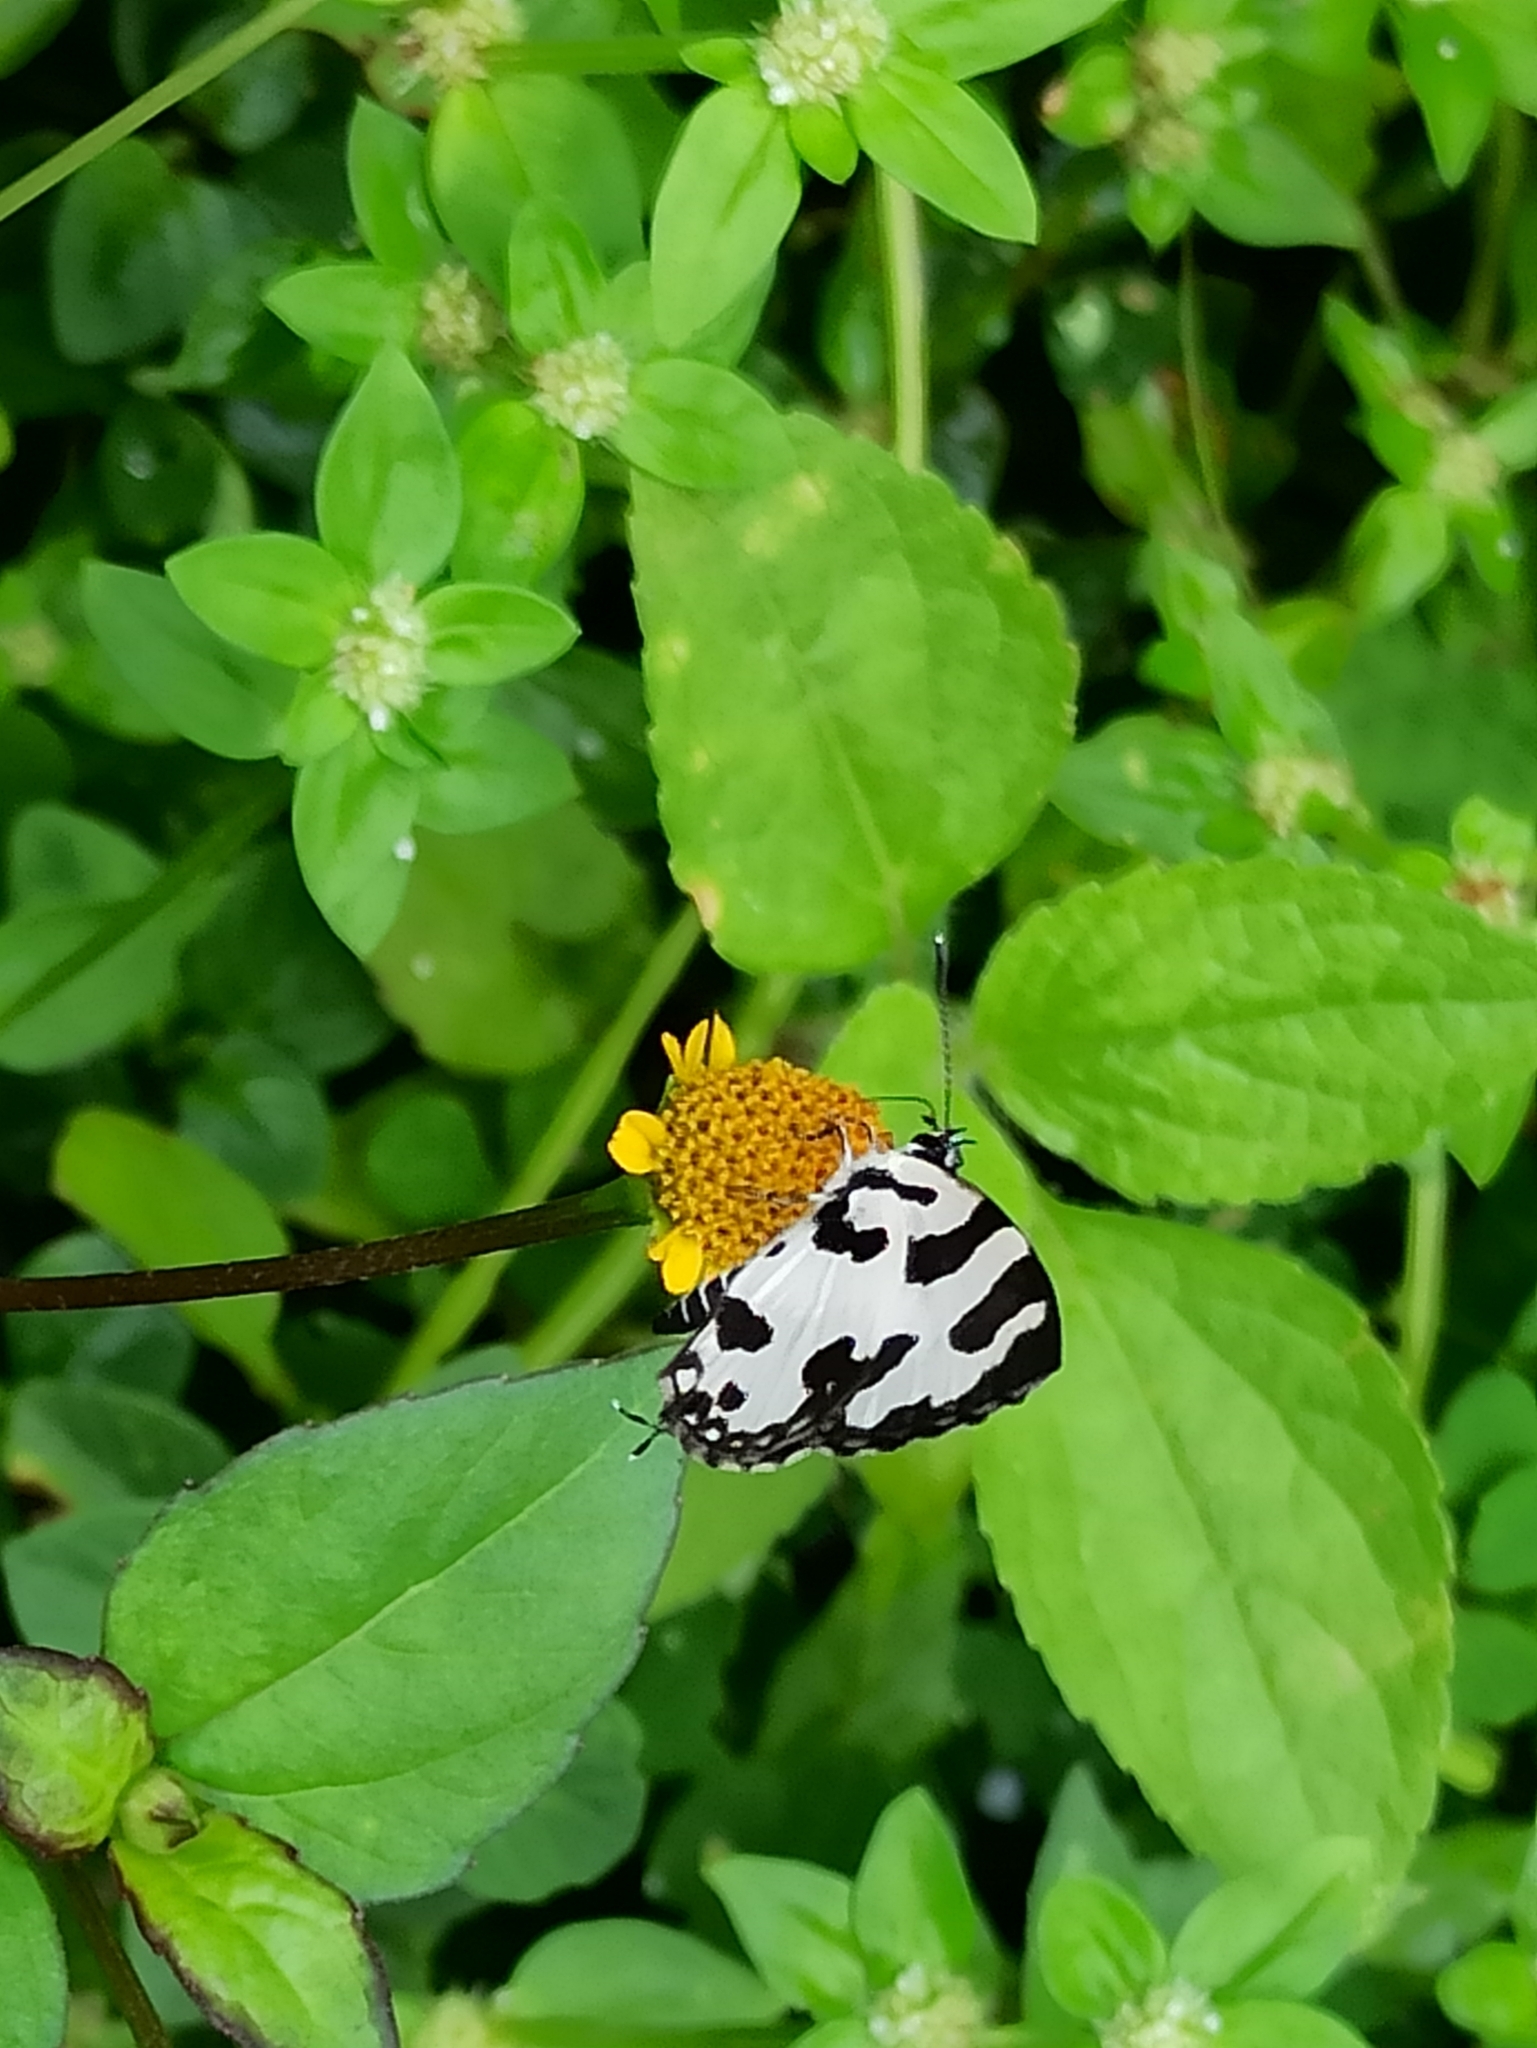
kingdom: Animalia
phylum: Arthropoda
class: Insecta
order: Lepidoptera
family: Lycaenidae
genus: Caleta
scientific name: Caleta decidia
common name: Angled pierrot
